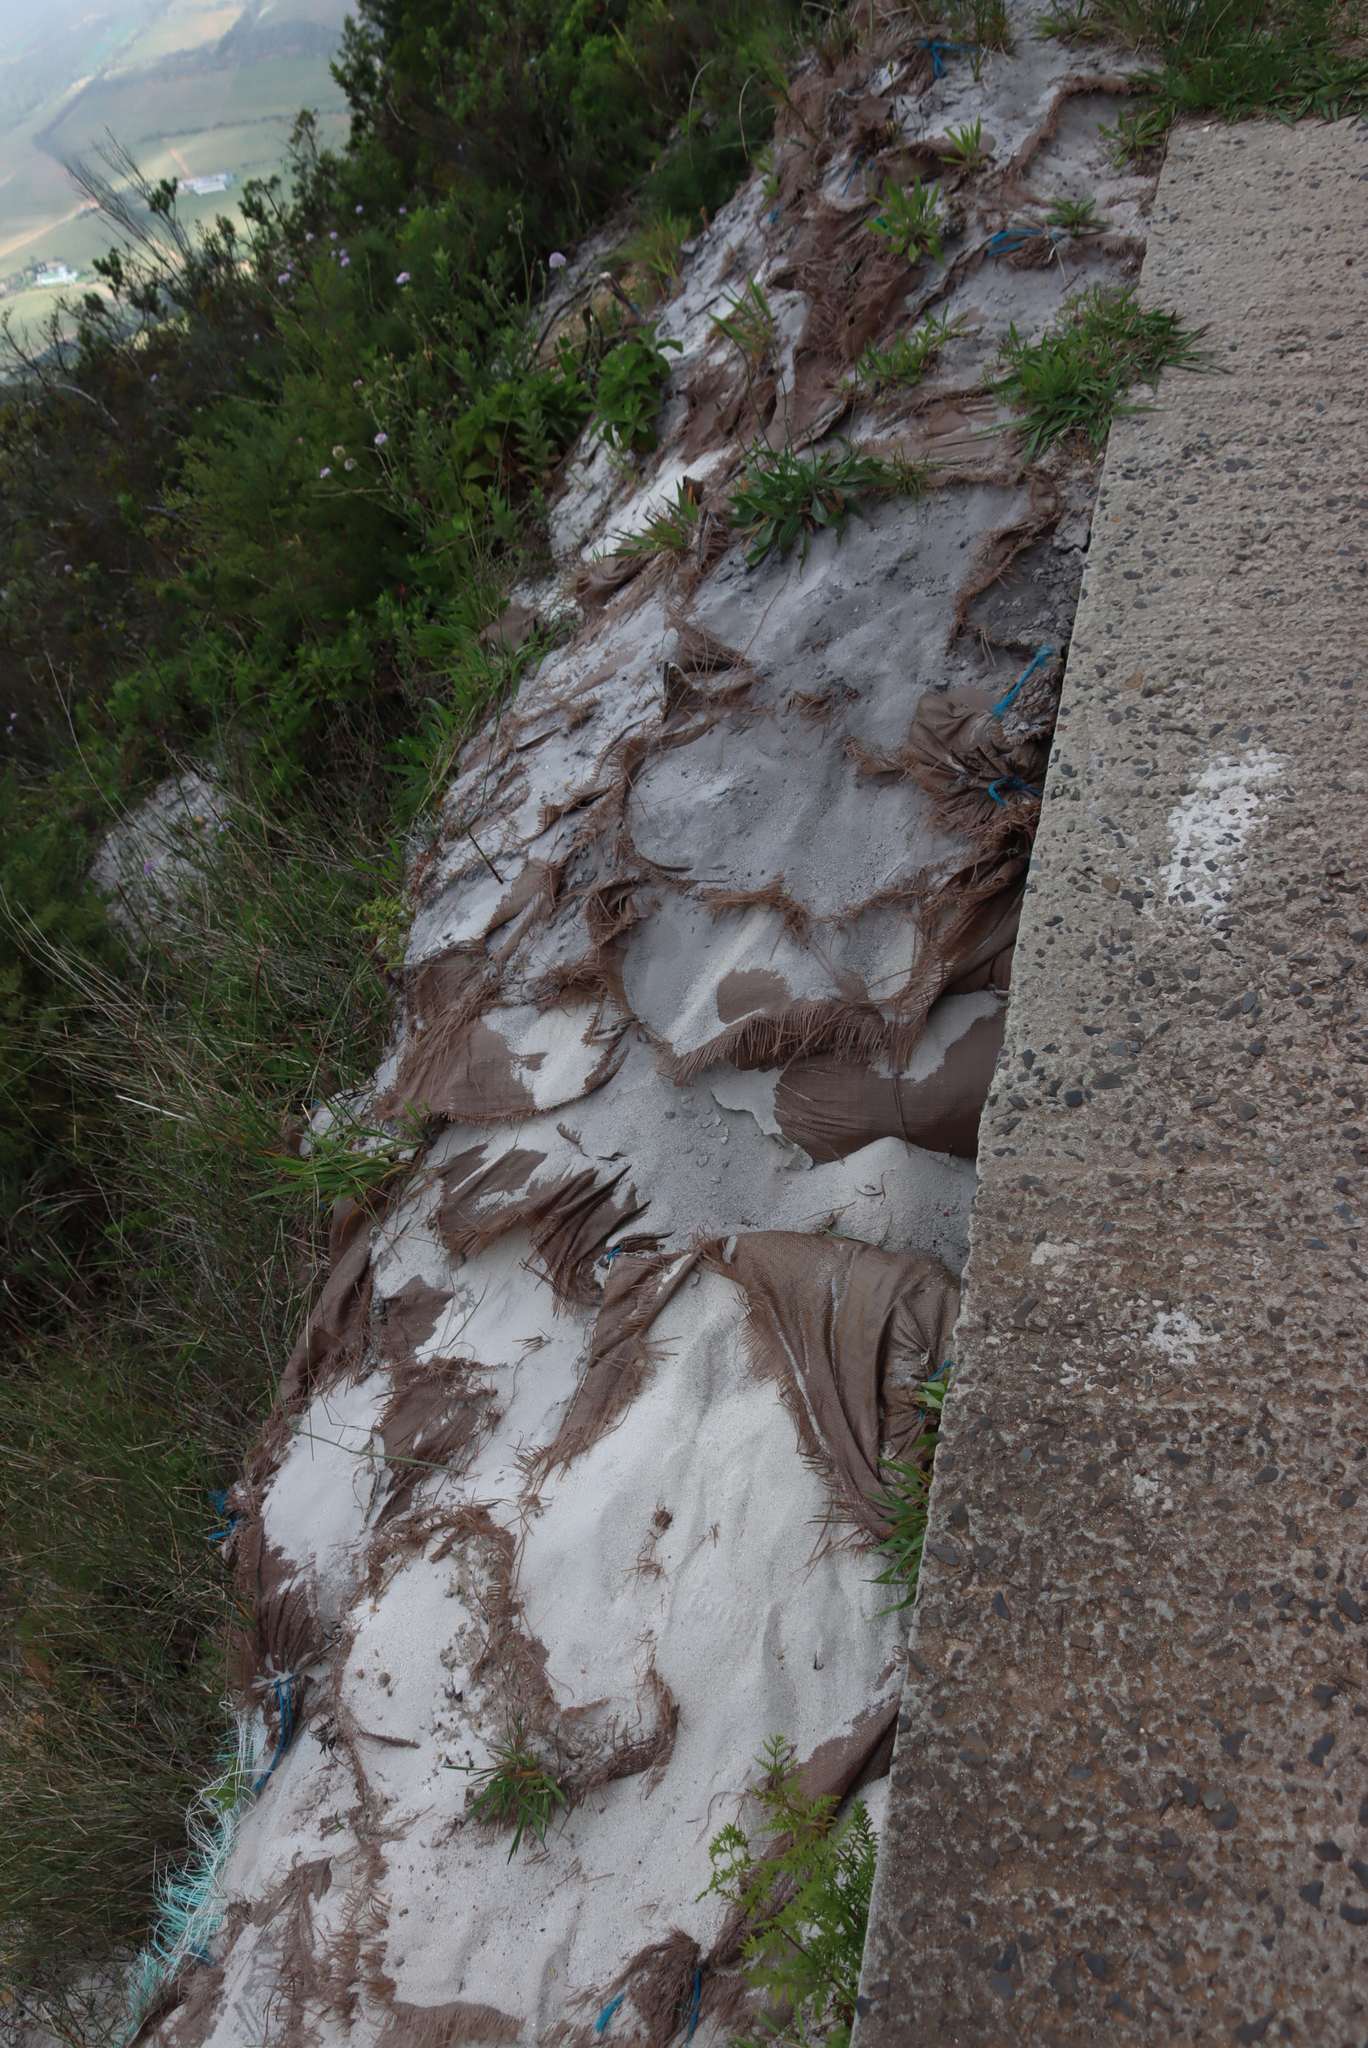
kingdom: Plantae
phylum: Tracheophyta
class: Magnoliopsida
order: Lamiales
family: Plantaginaceae
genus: Plantago
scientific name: Plantago lanceolata
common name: Ribwort plantain
